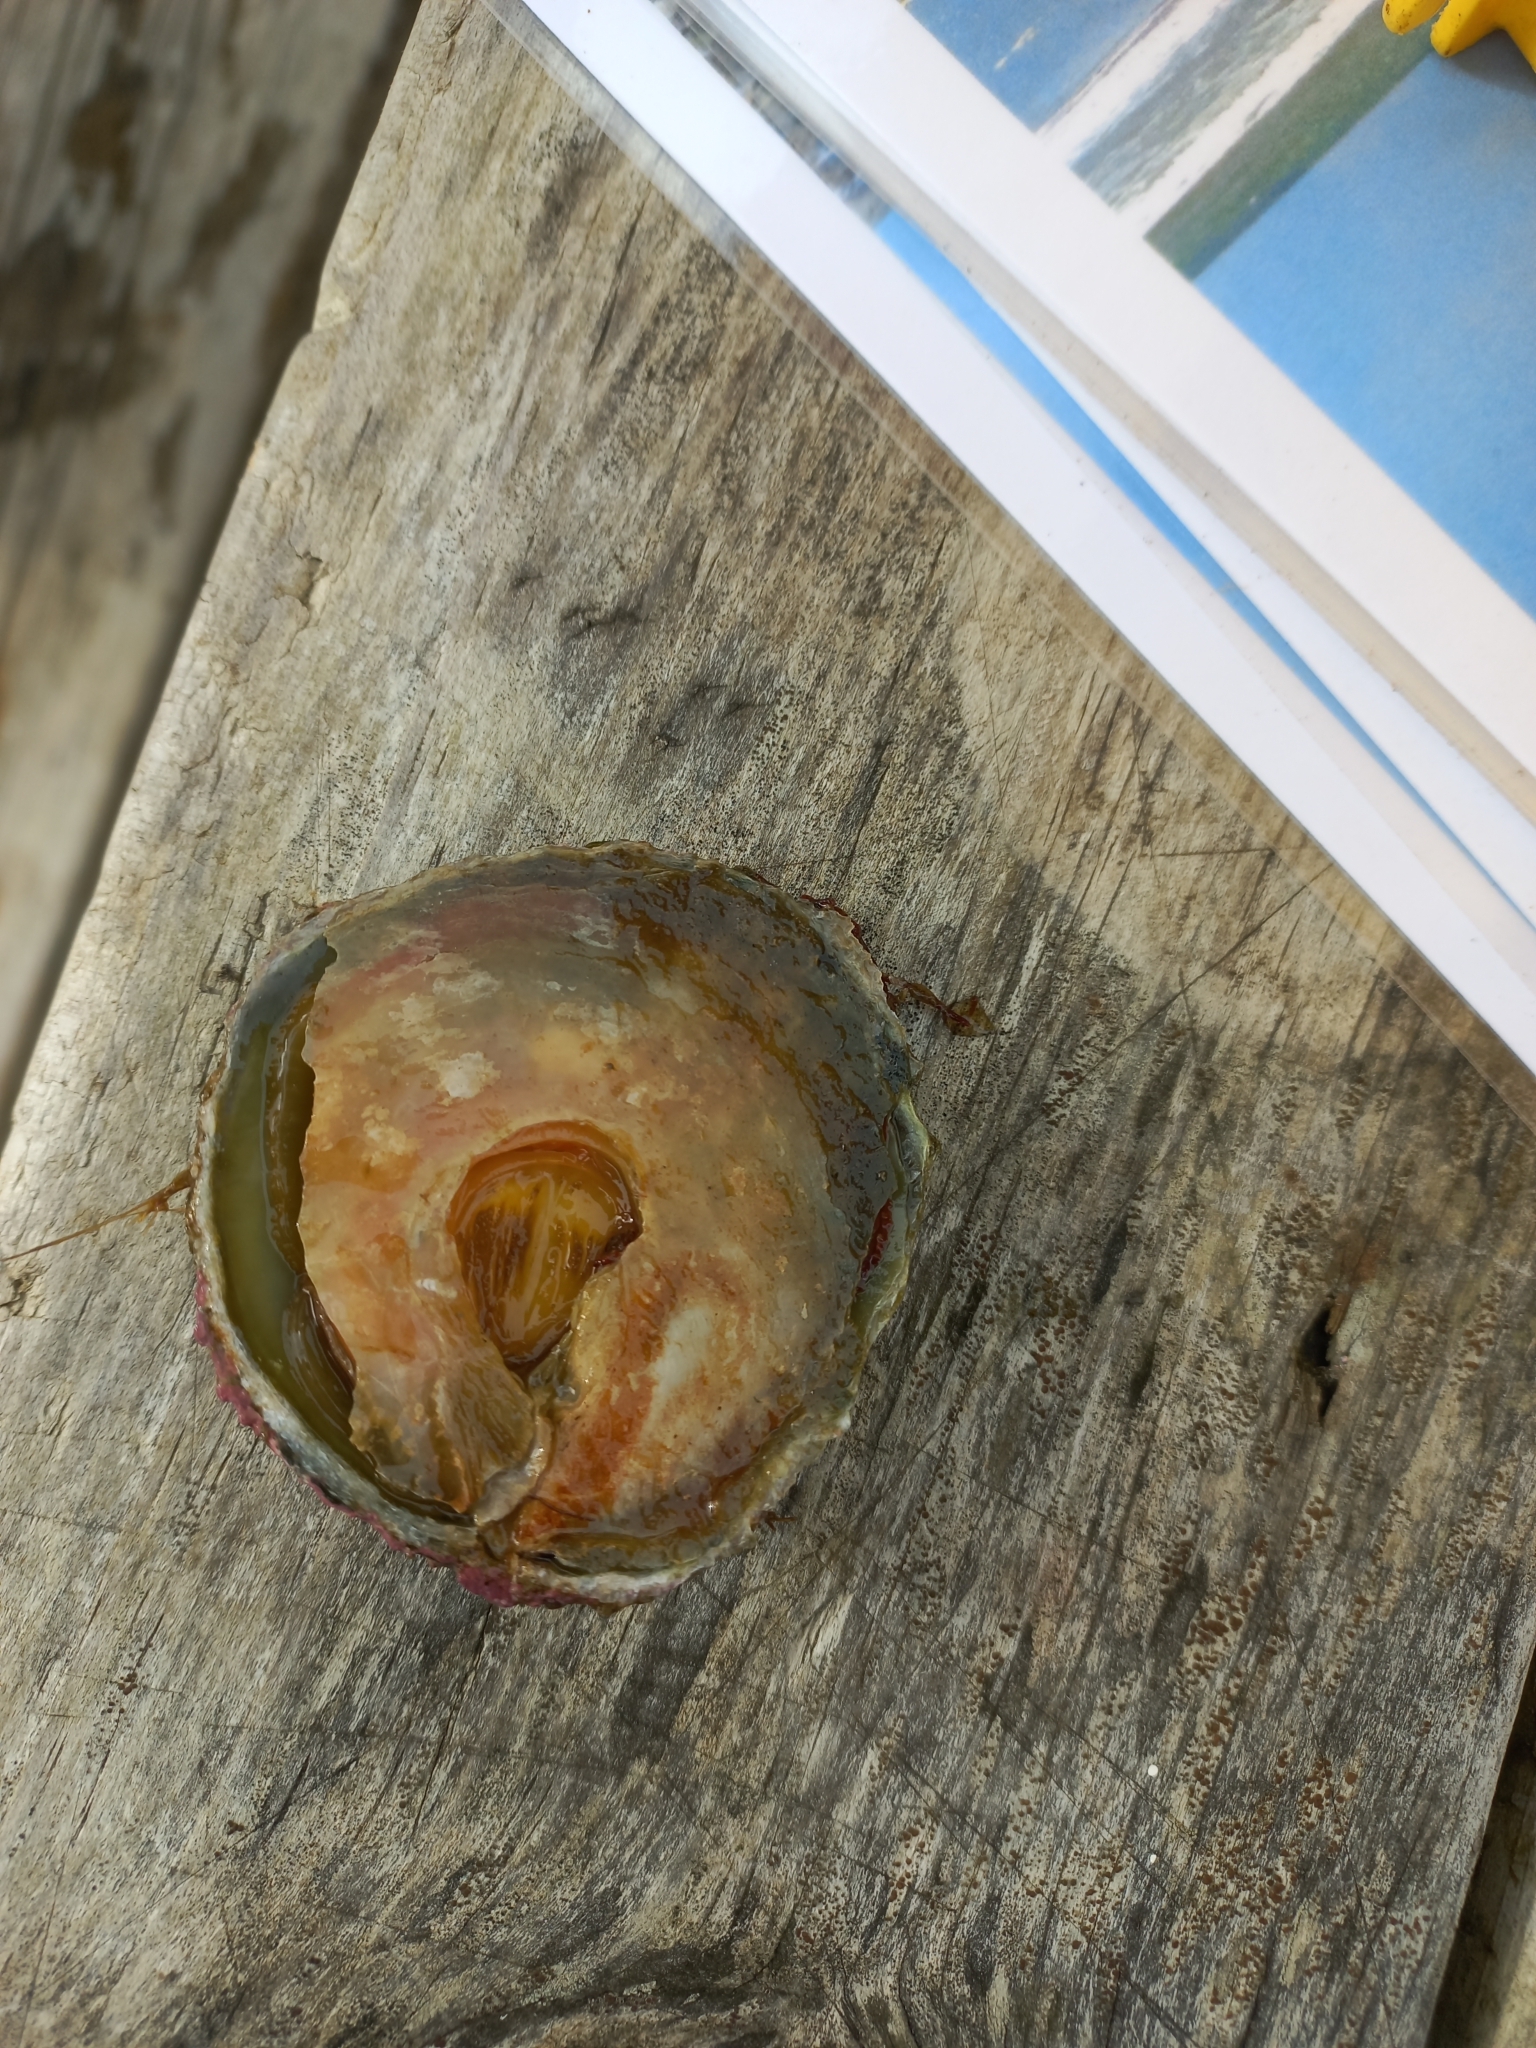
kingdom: Animalia
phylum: Mollusca
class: Bivalvia
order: Pectinida
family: Anomiidae
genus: Monia
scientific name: Monia zelandica
